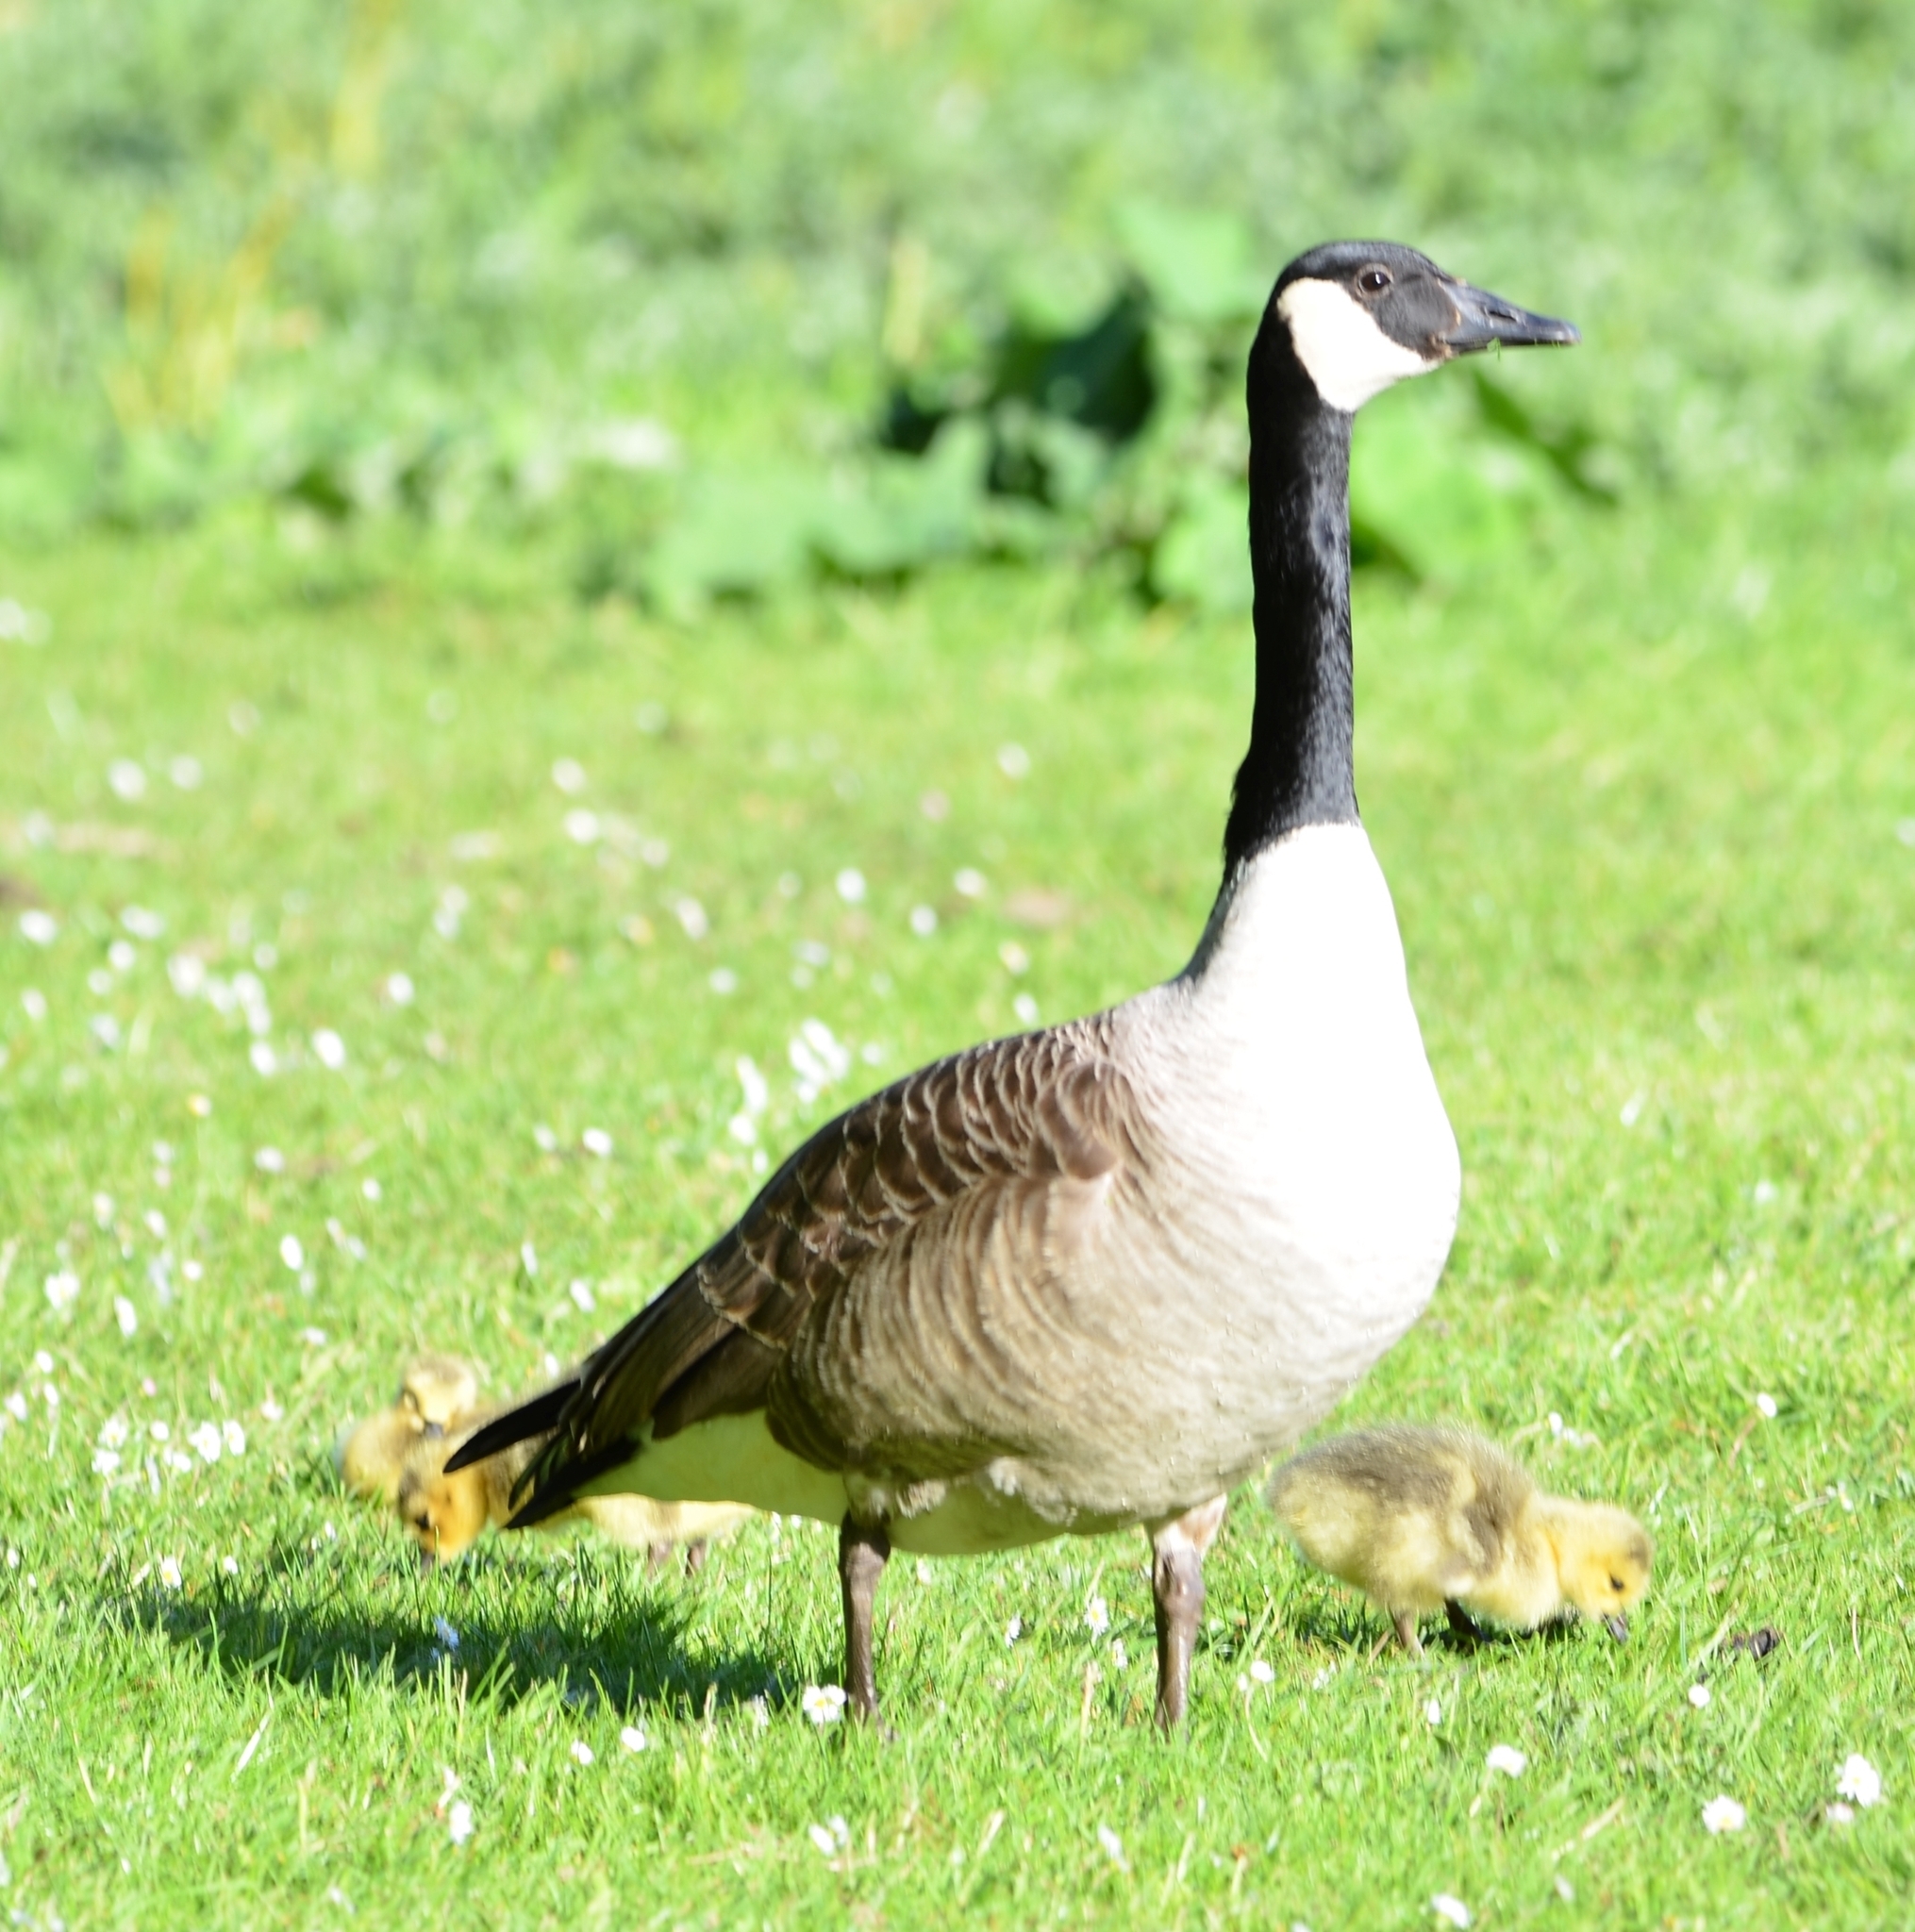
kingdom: Animalia
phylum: Chordata
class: Aves
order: Anseriformes
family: Anatidae
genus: Branta
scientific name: Branta canadensis
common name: Canada goose
